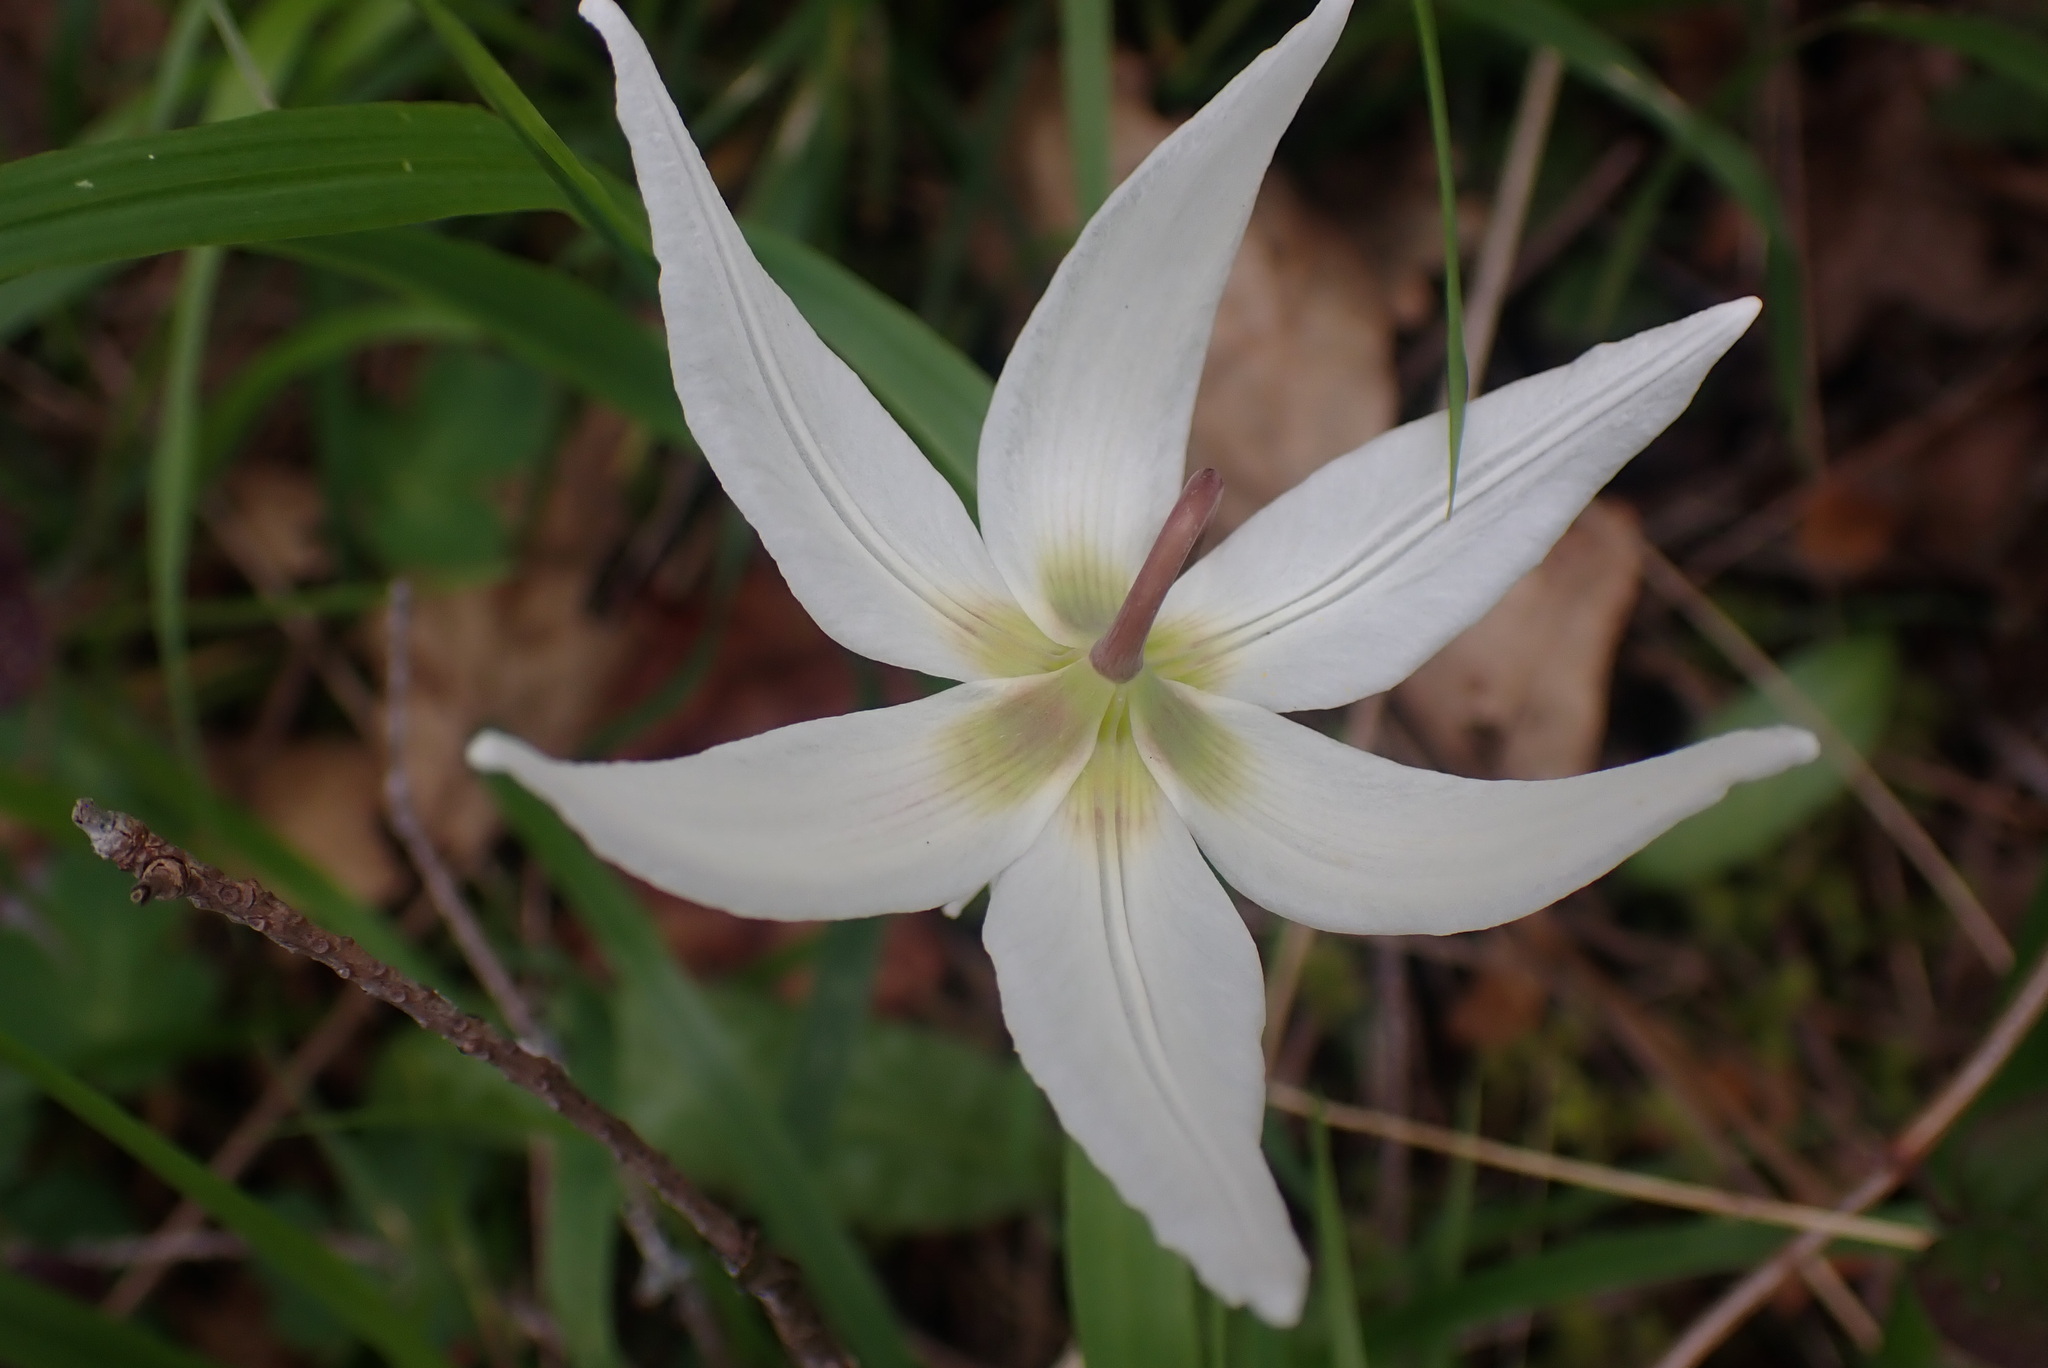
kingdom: Plantae
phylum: Tracheophyta
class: Liliopsida
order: Liliales
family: Liliaceae
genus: Erythronium
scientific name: Erythronium oregonum
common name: Giant adder's-tongue
